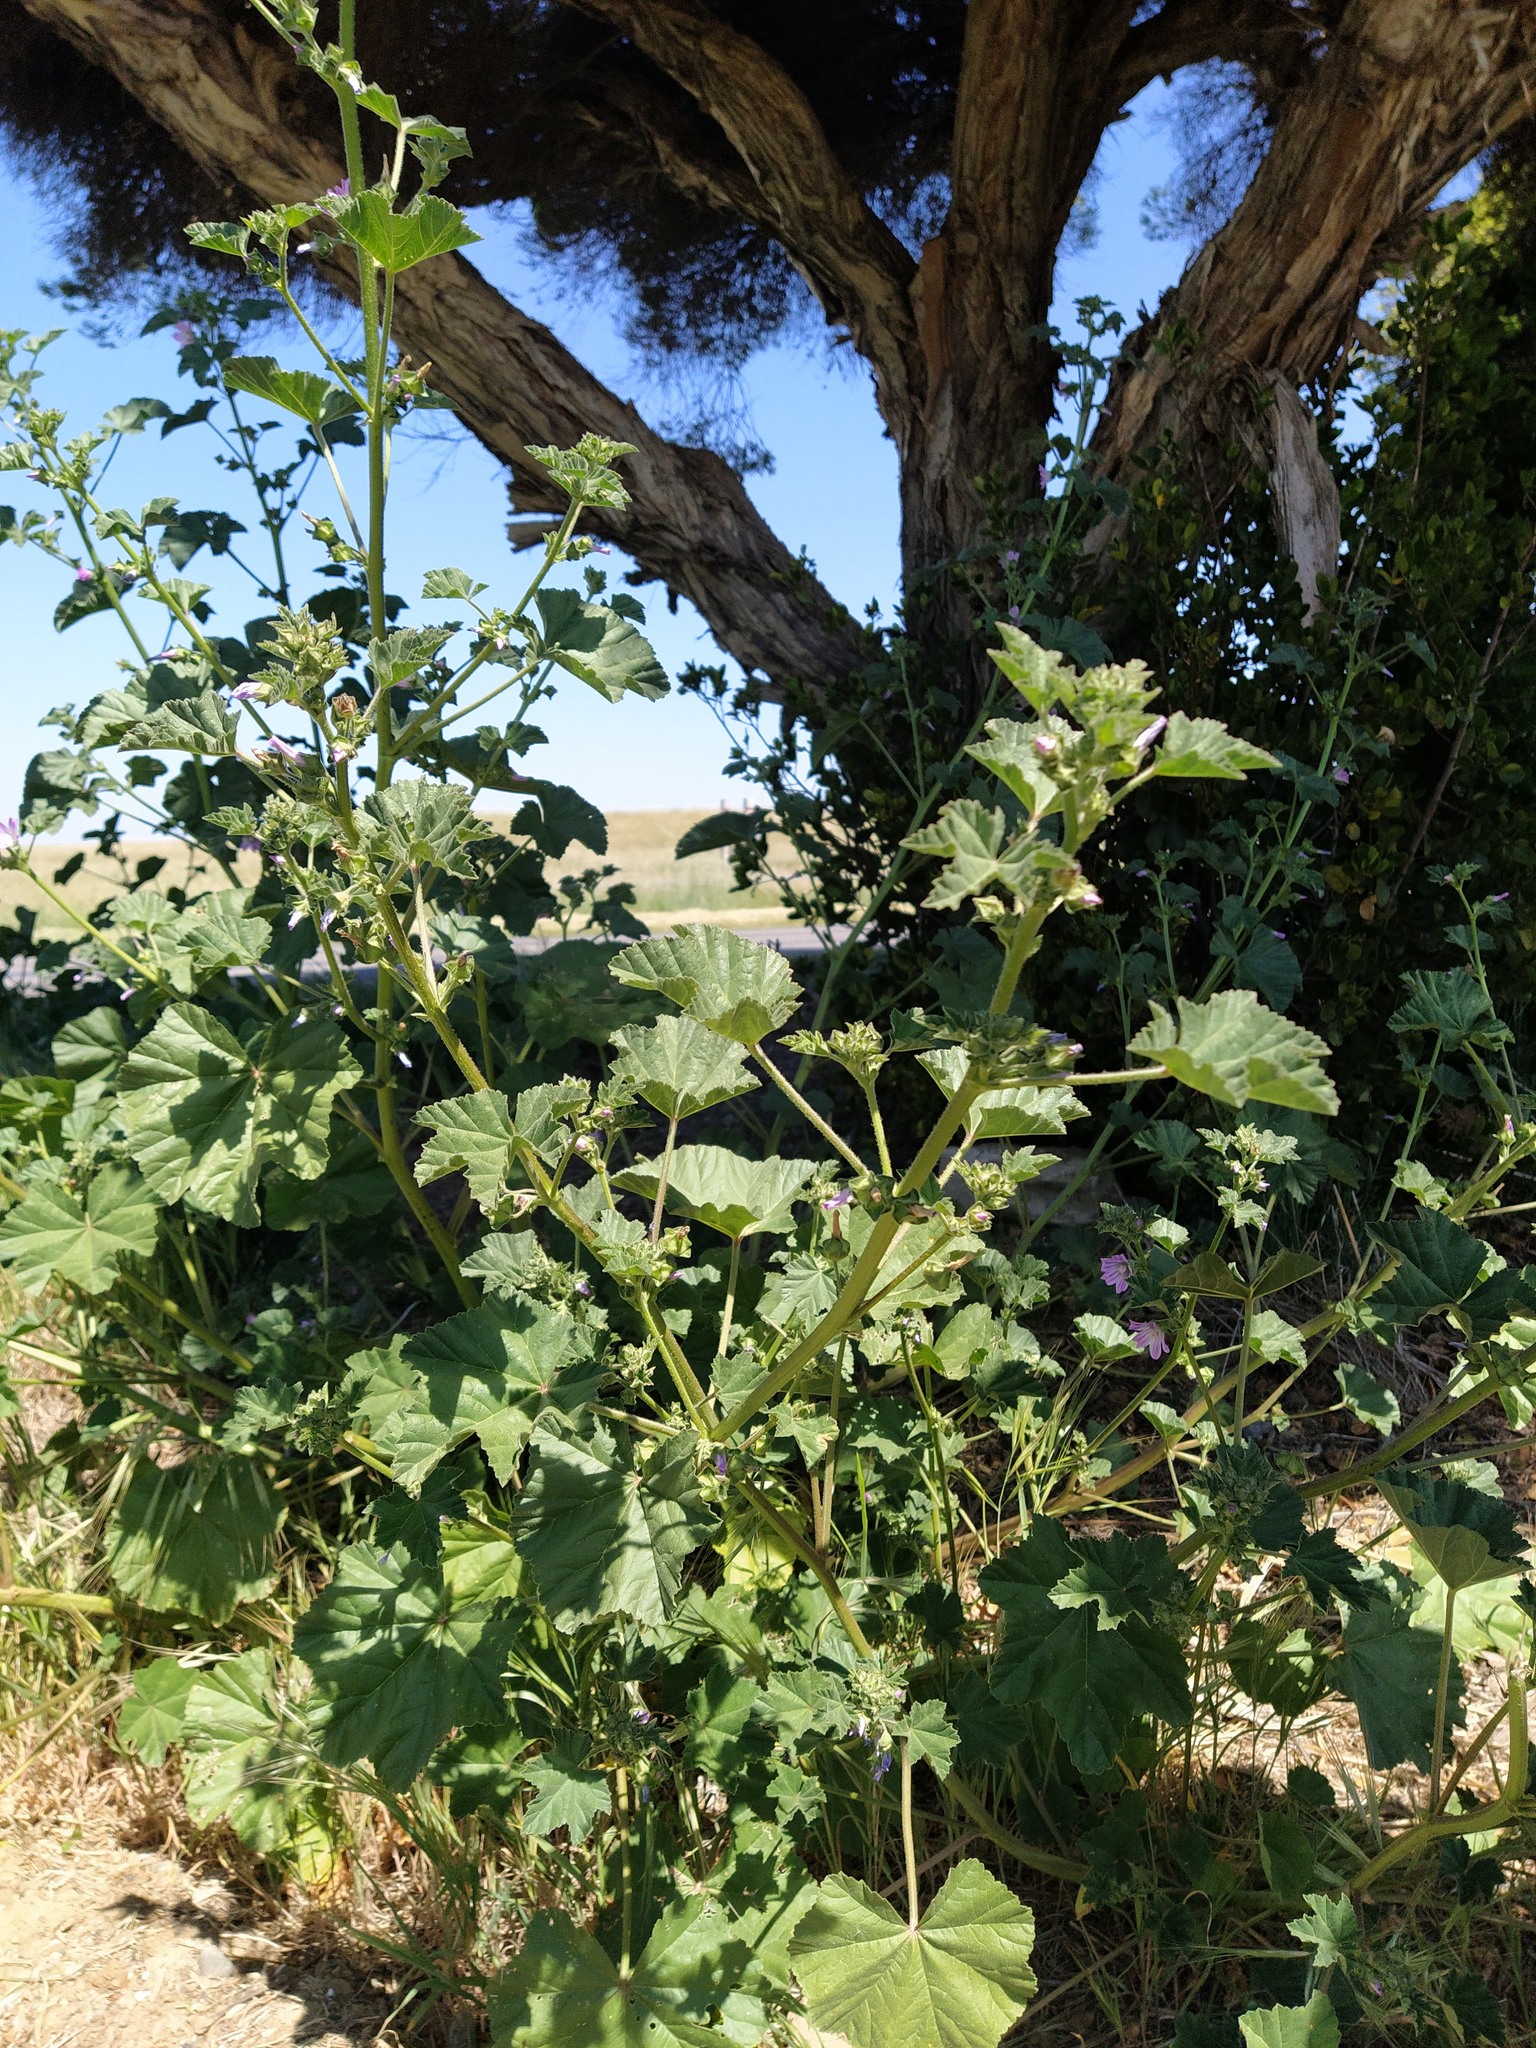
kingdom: Plantae
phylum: Tracheophyta
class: Magnoliopsida
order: Malvales
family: Malvaceae
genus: Malva
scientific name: Malva multiflora
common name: Cheeseweed
